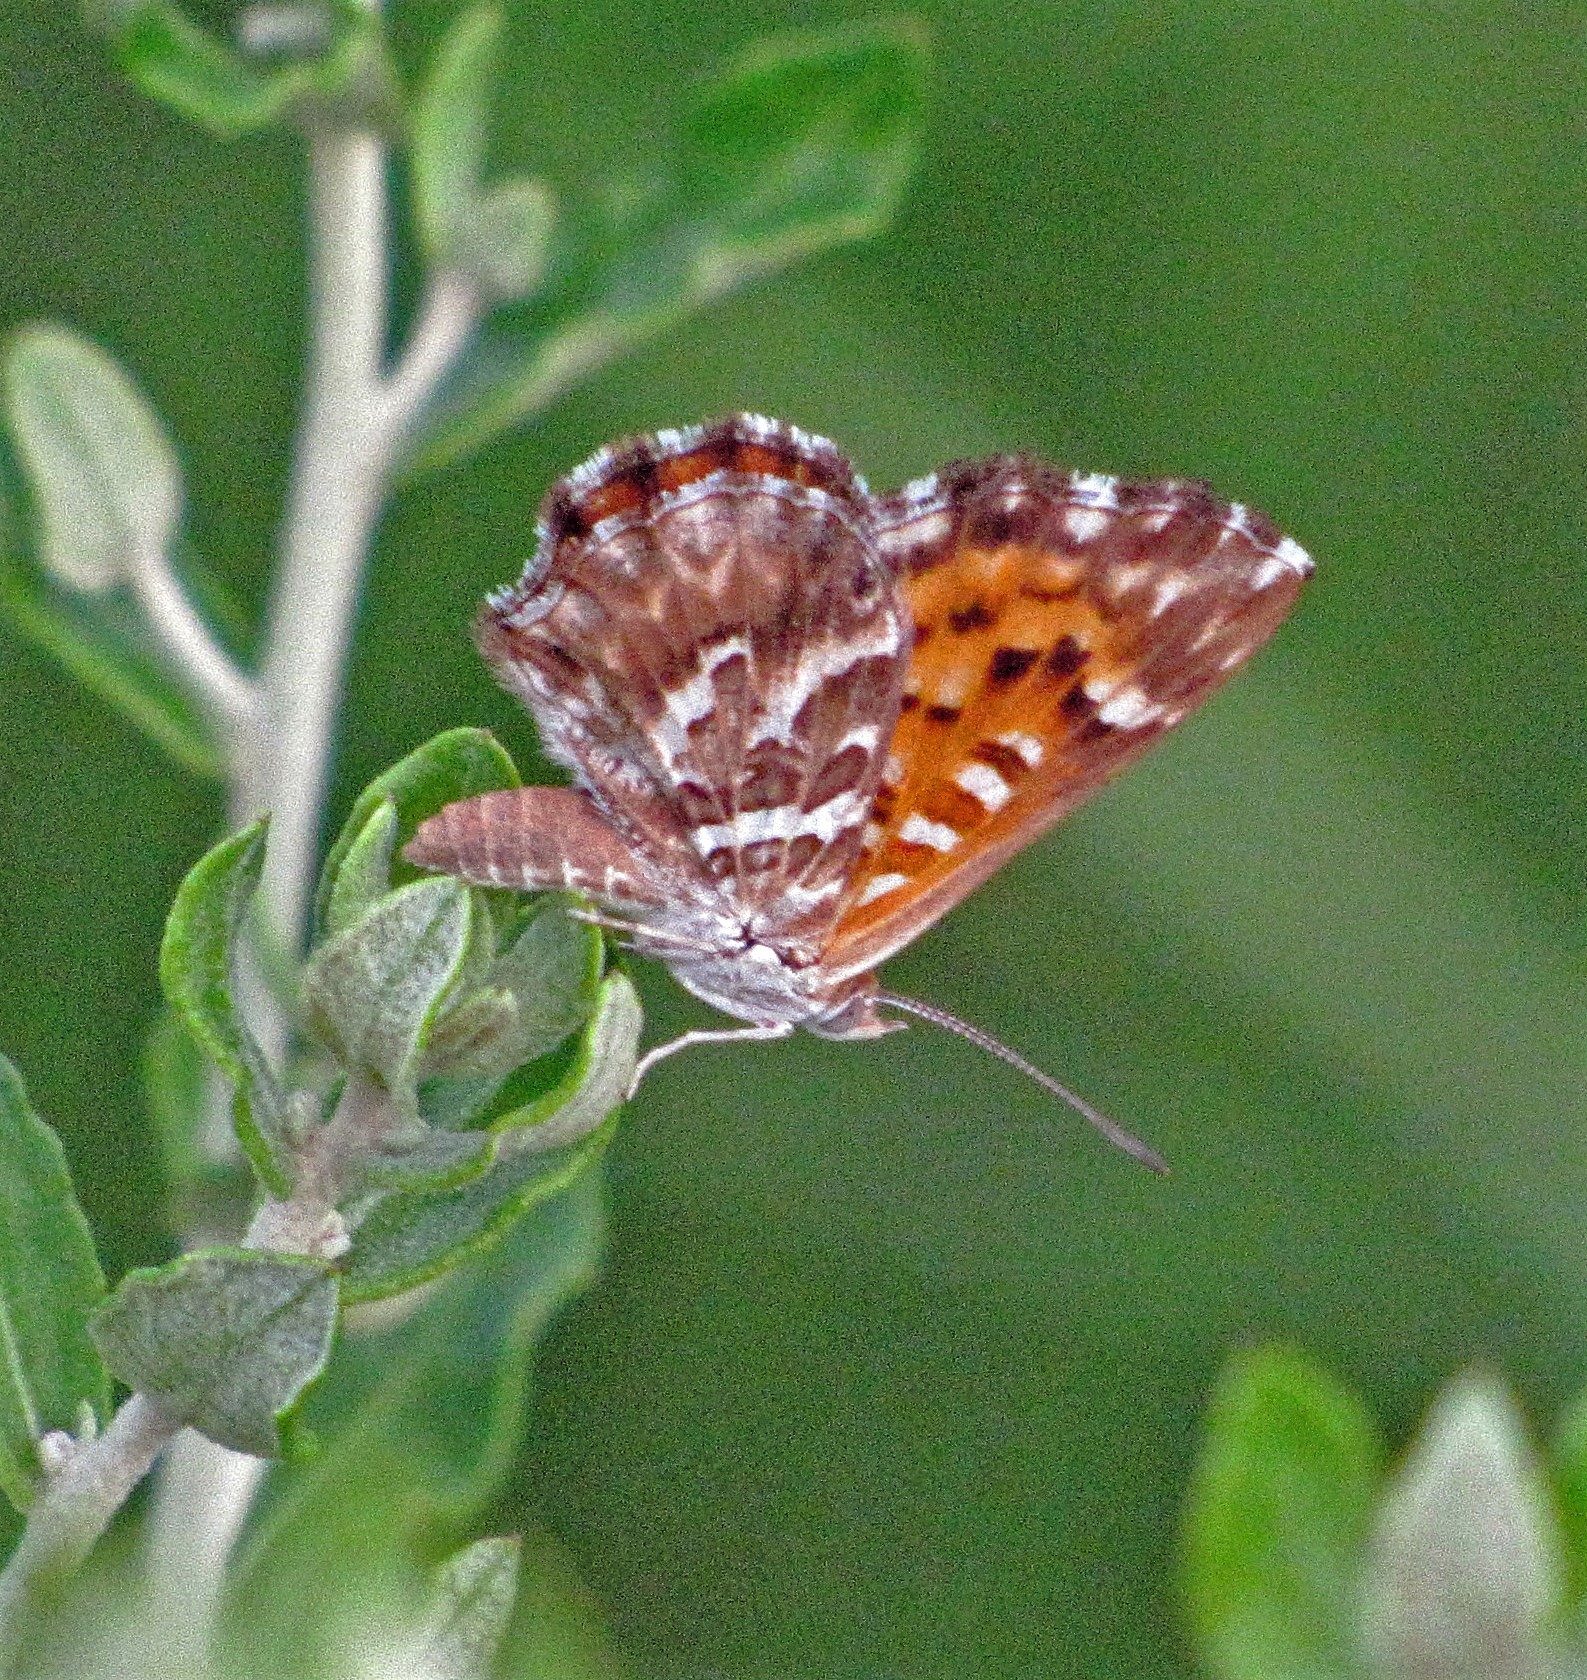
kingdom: Animalia
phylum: Arthropoda
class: Insecta
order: Lepidoptera
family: Lycaenidae
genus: Aricoris
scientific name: Aricoris chilensis
